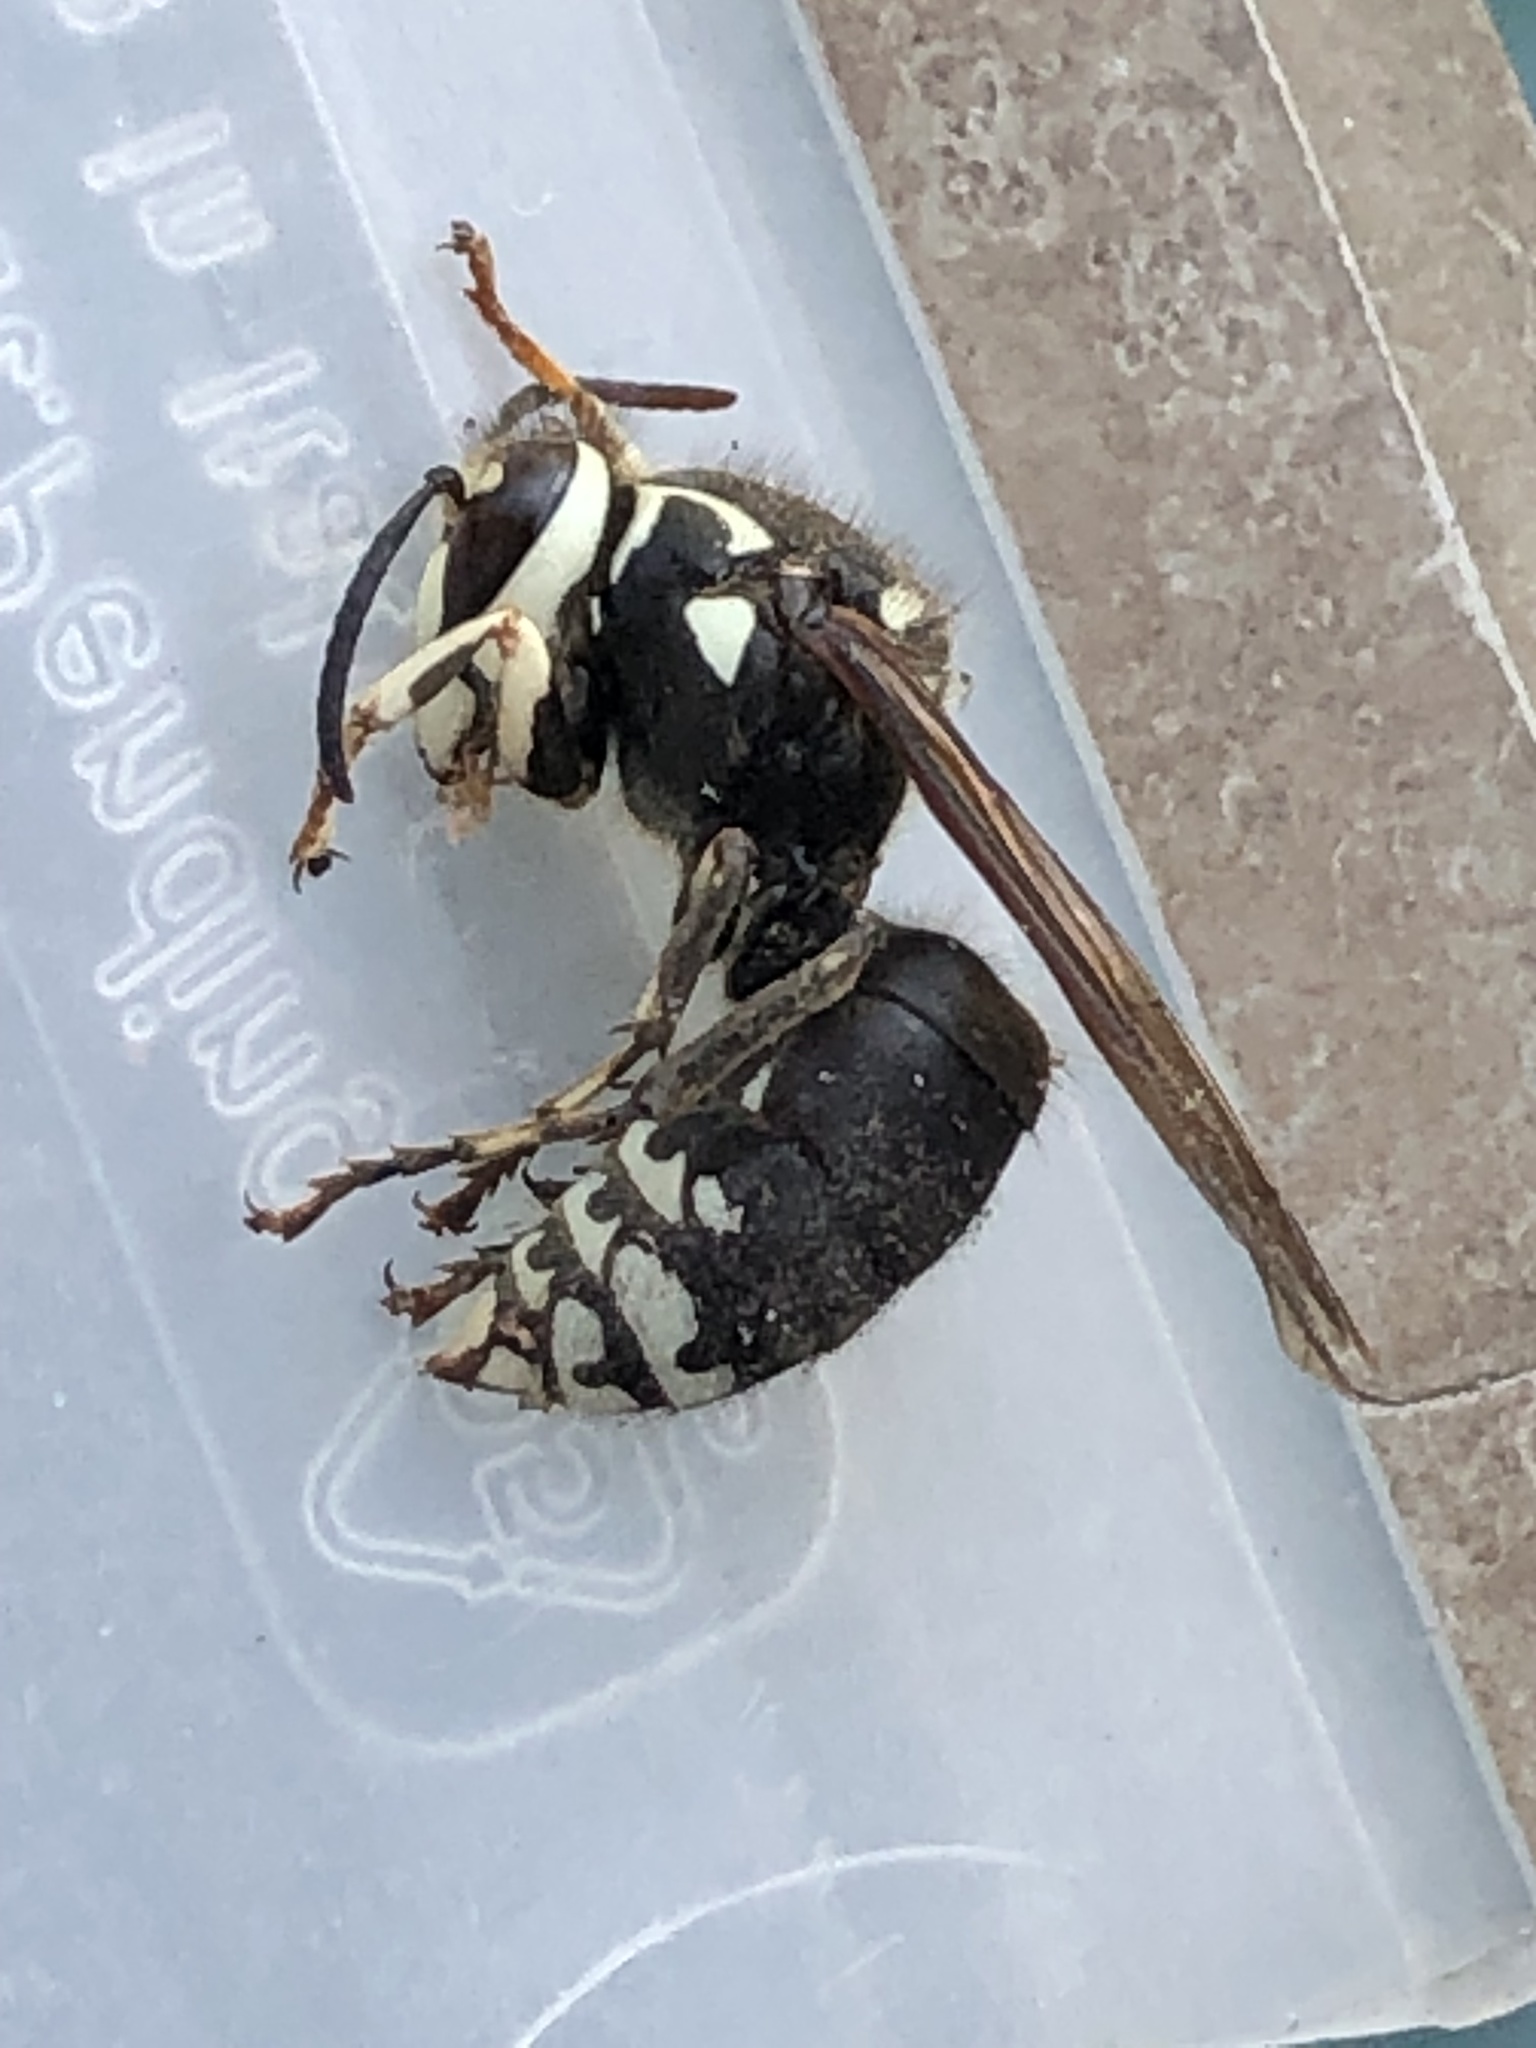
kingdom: Animalia
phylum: Arthropoda
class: Insecta
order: Hymenoptera
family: Vespidae
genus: Dolichovespula
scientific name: Dolichovespula maculata
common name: Bald-faced hornet
